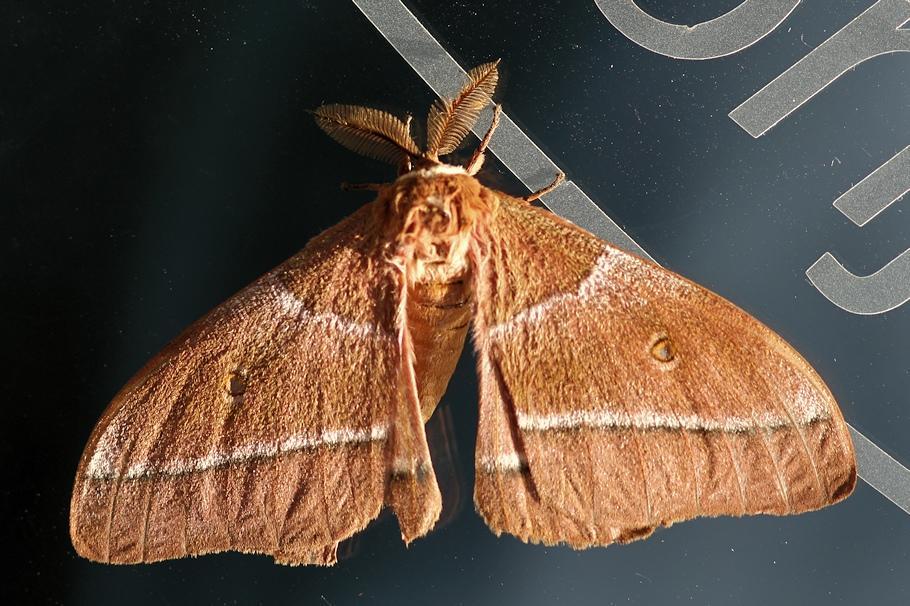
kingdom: Animalia
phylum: Arthropoda
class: Insecta
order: Lepidoptera
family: Saturniidae
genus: Gonimbrasia
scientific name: Gonimbrasia belina
